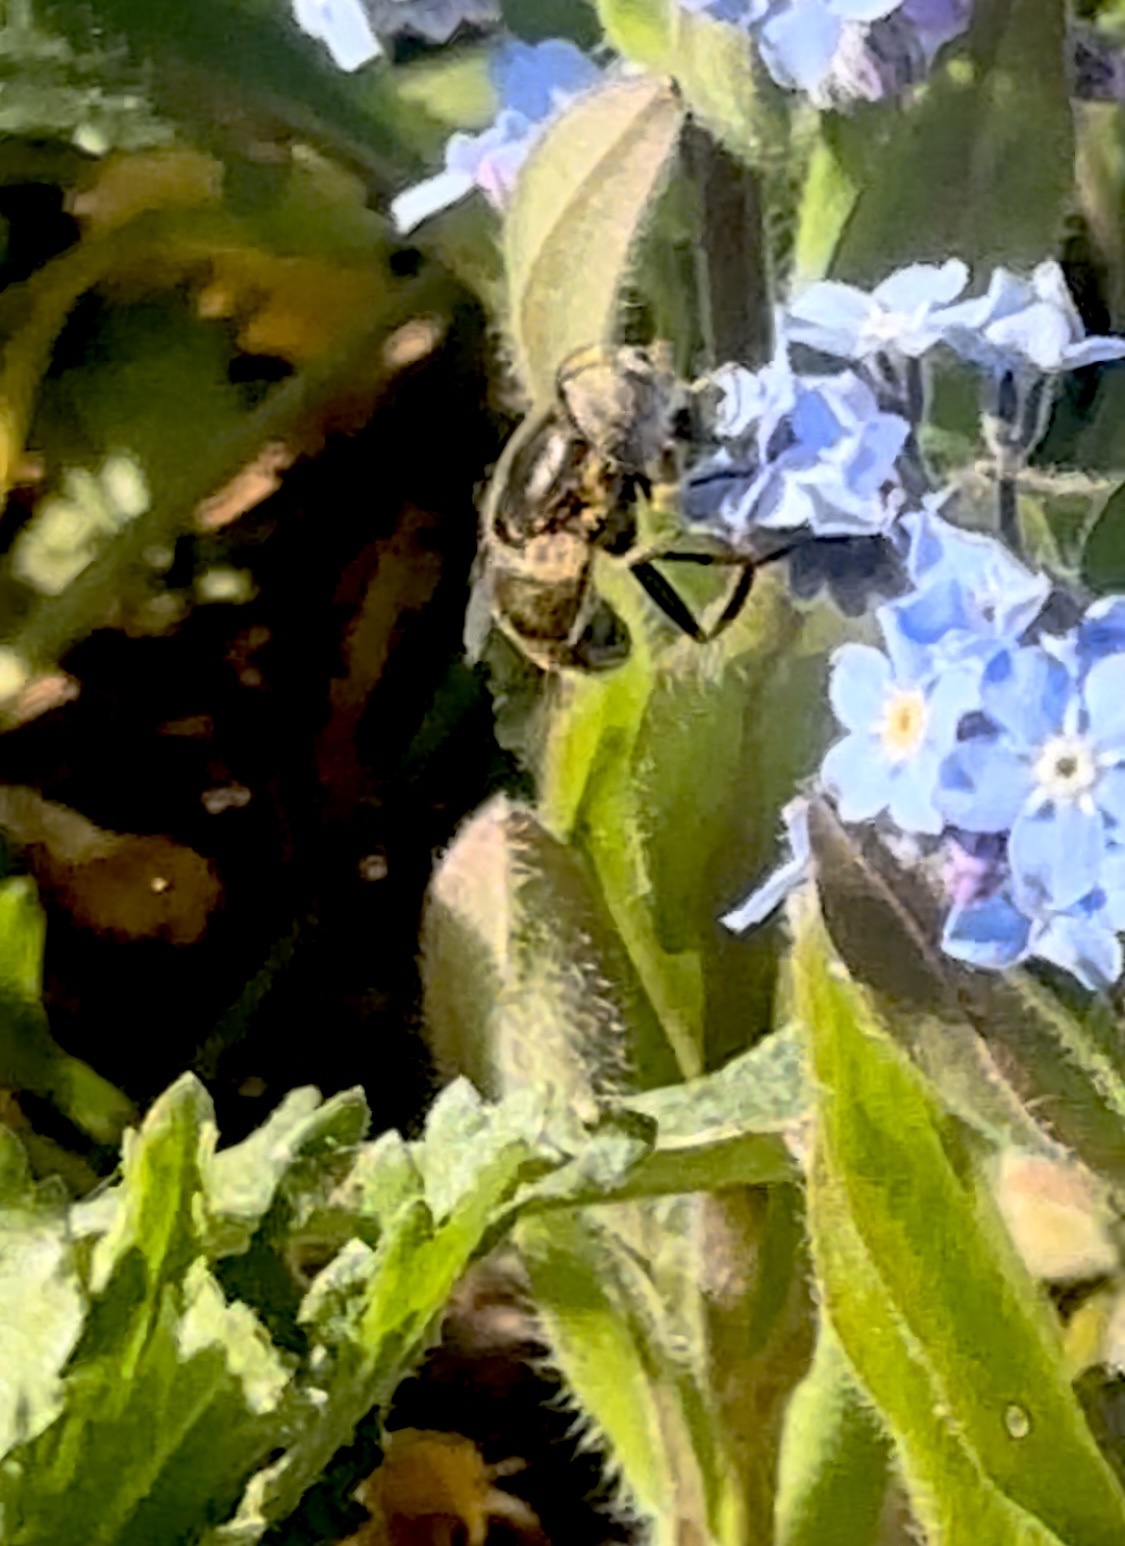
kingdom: Animalia
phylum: Arthropoda
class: Insecta
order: Diptera
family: Syrphidae
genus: Eristalinus
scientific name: Eristalinus aeneus
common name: Syrphid fly
